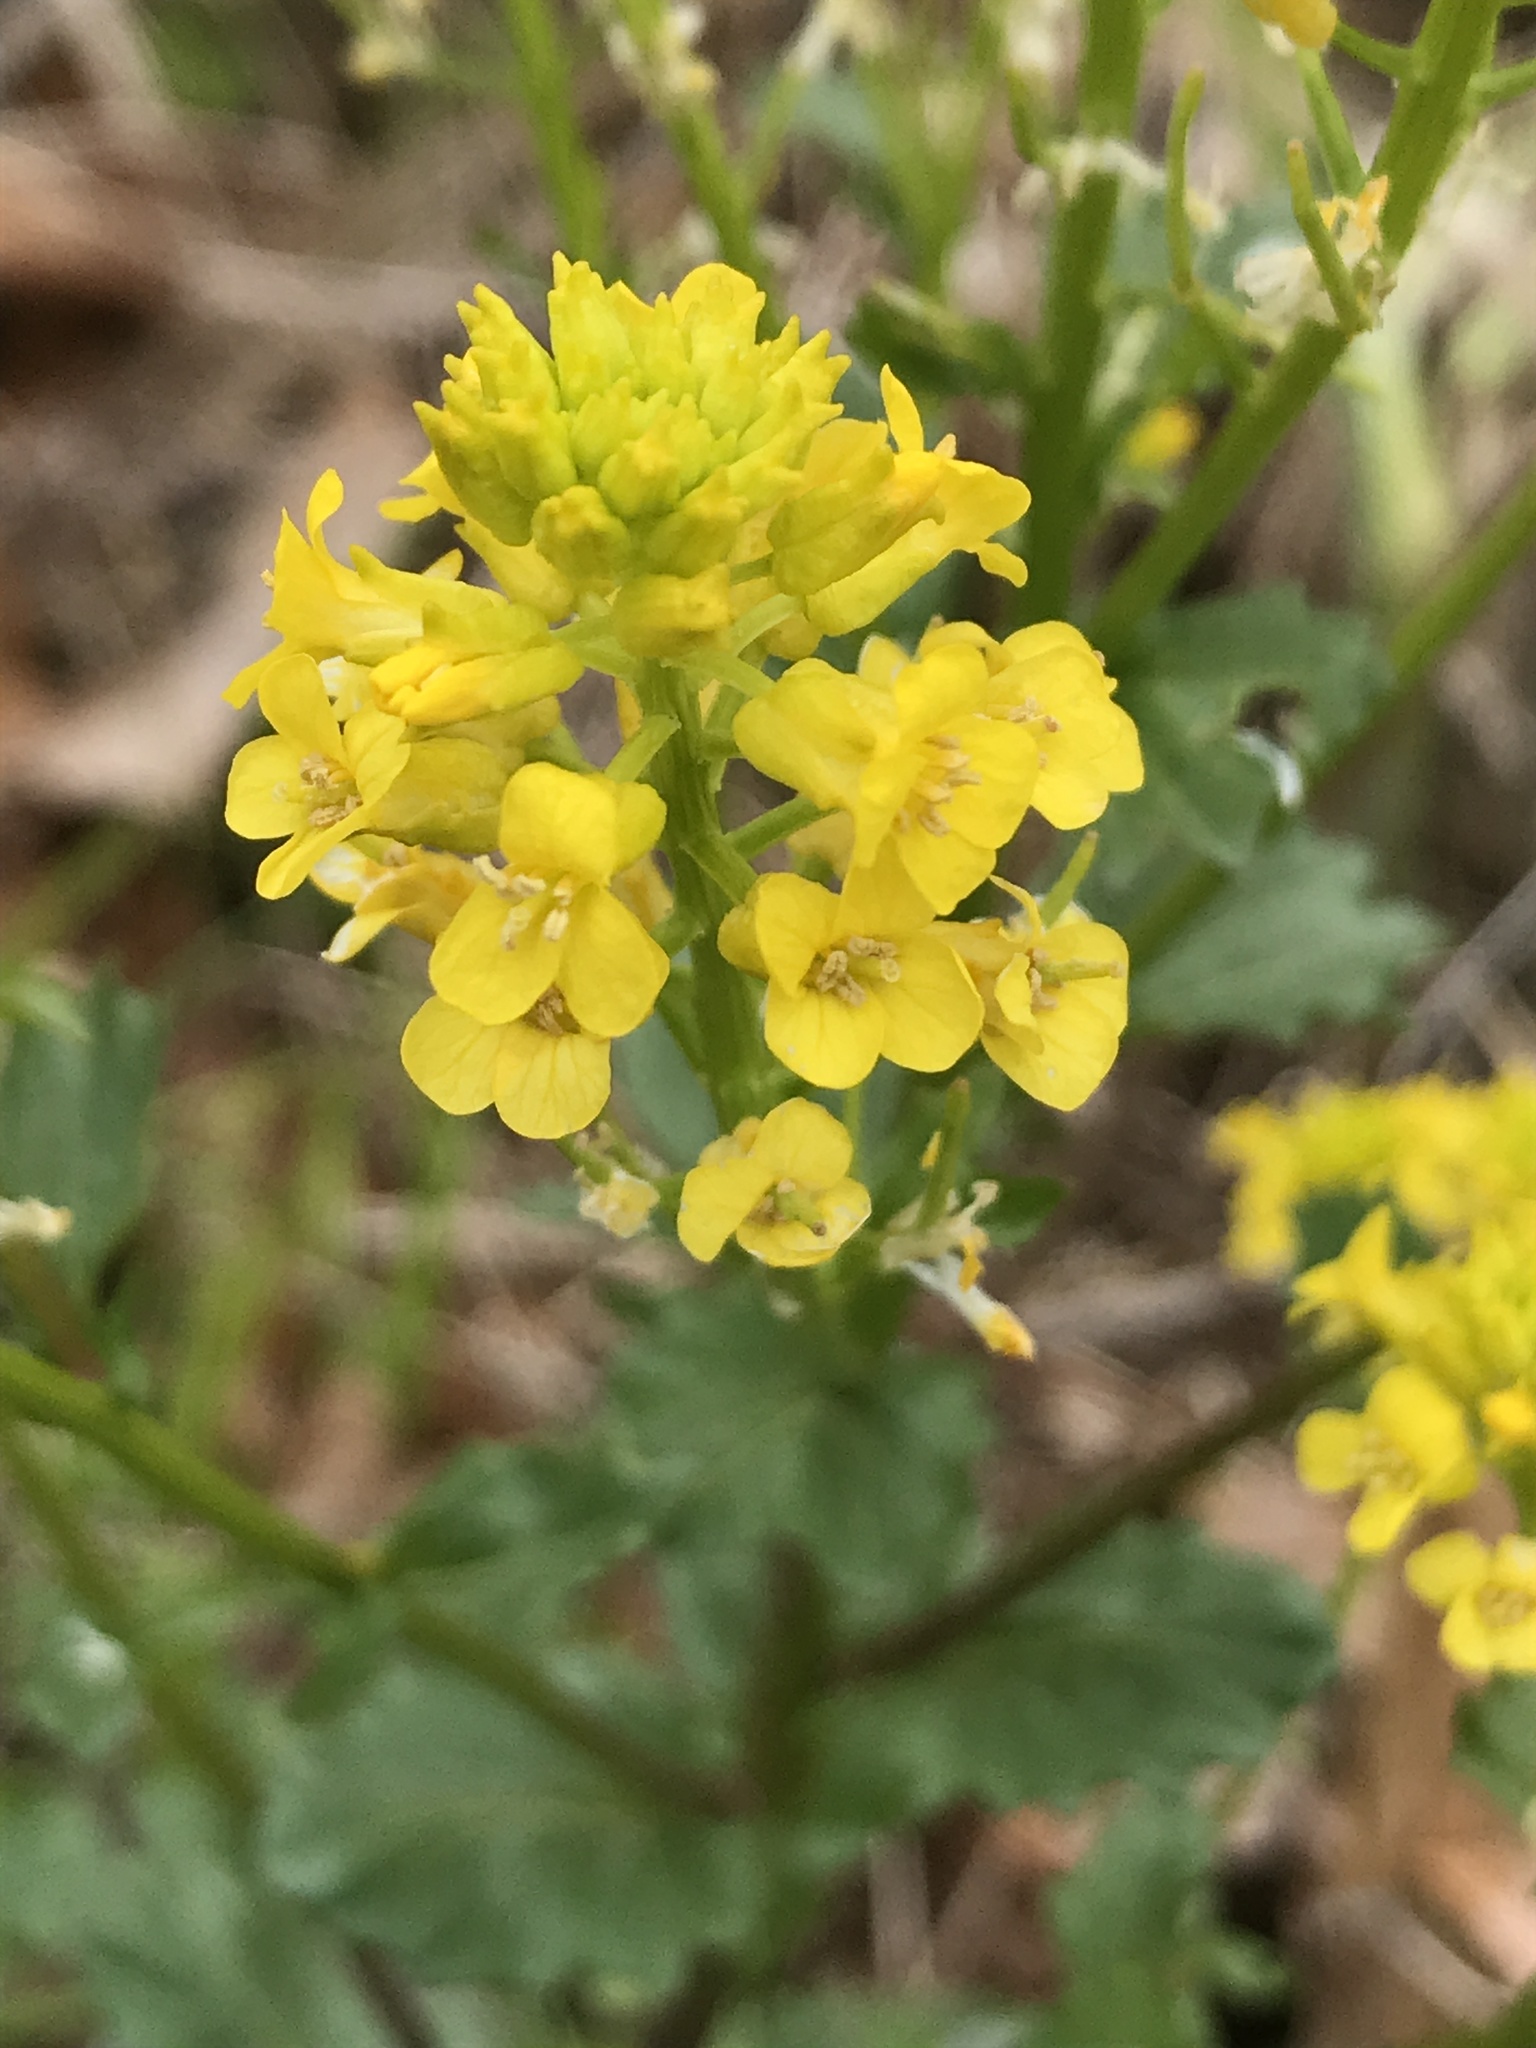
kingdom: Plantae
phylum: Tracheophyta
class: Magnoliopsida
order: Brassicales
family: Brassicaceae
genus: Barbarea
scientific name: Barbarea vulgaris
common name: Cressy-greens
